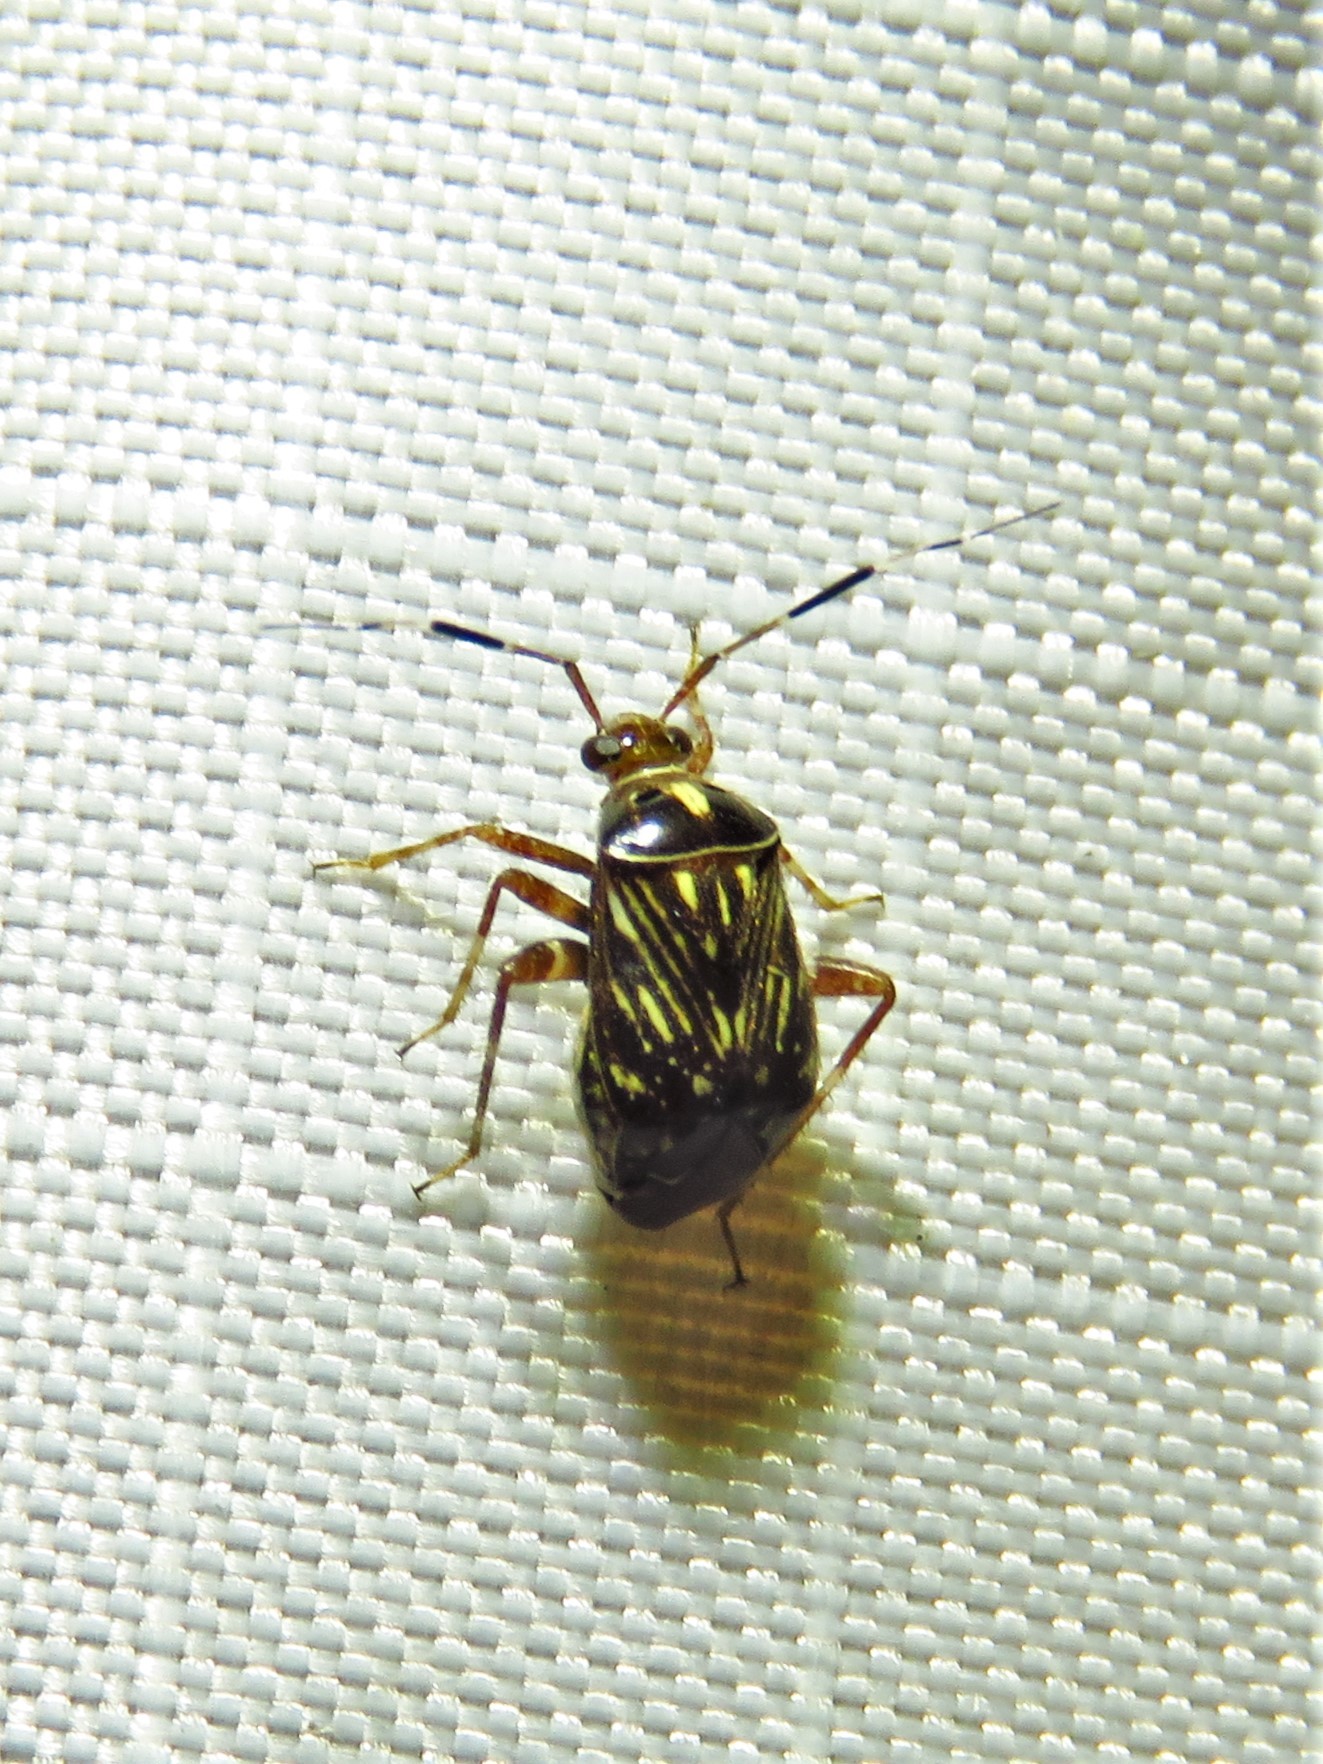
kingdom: Animalia
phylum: Arthropoda
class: Insecta
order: Hemiptera
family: Miridae
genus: Taedia
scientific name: Taedia virgulata
